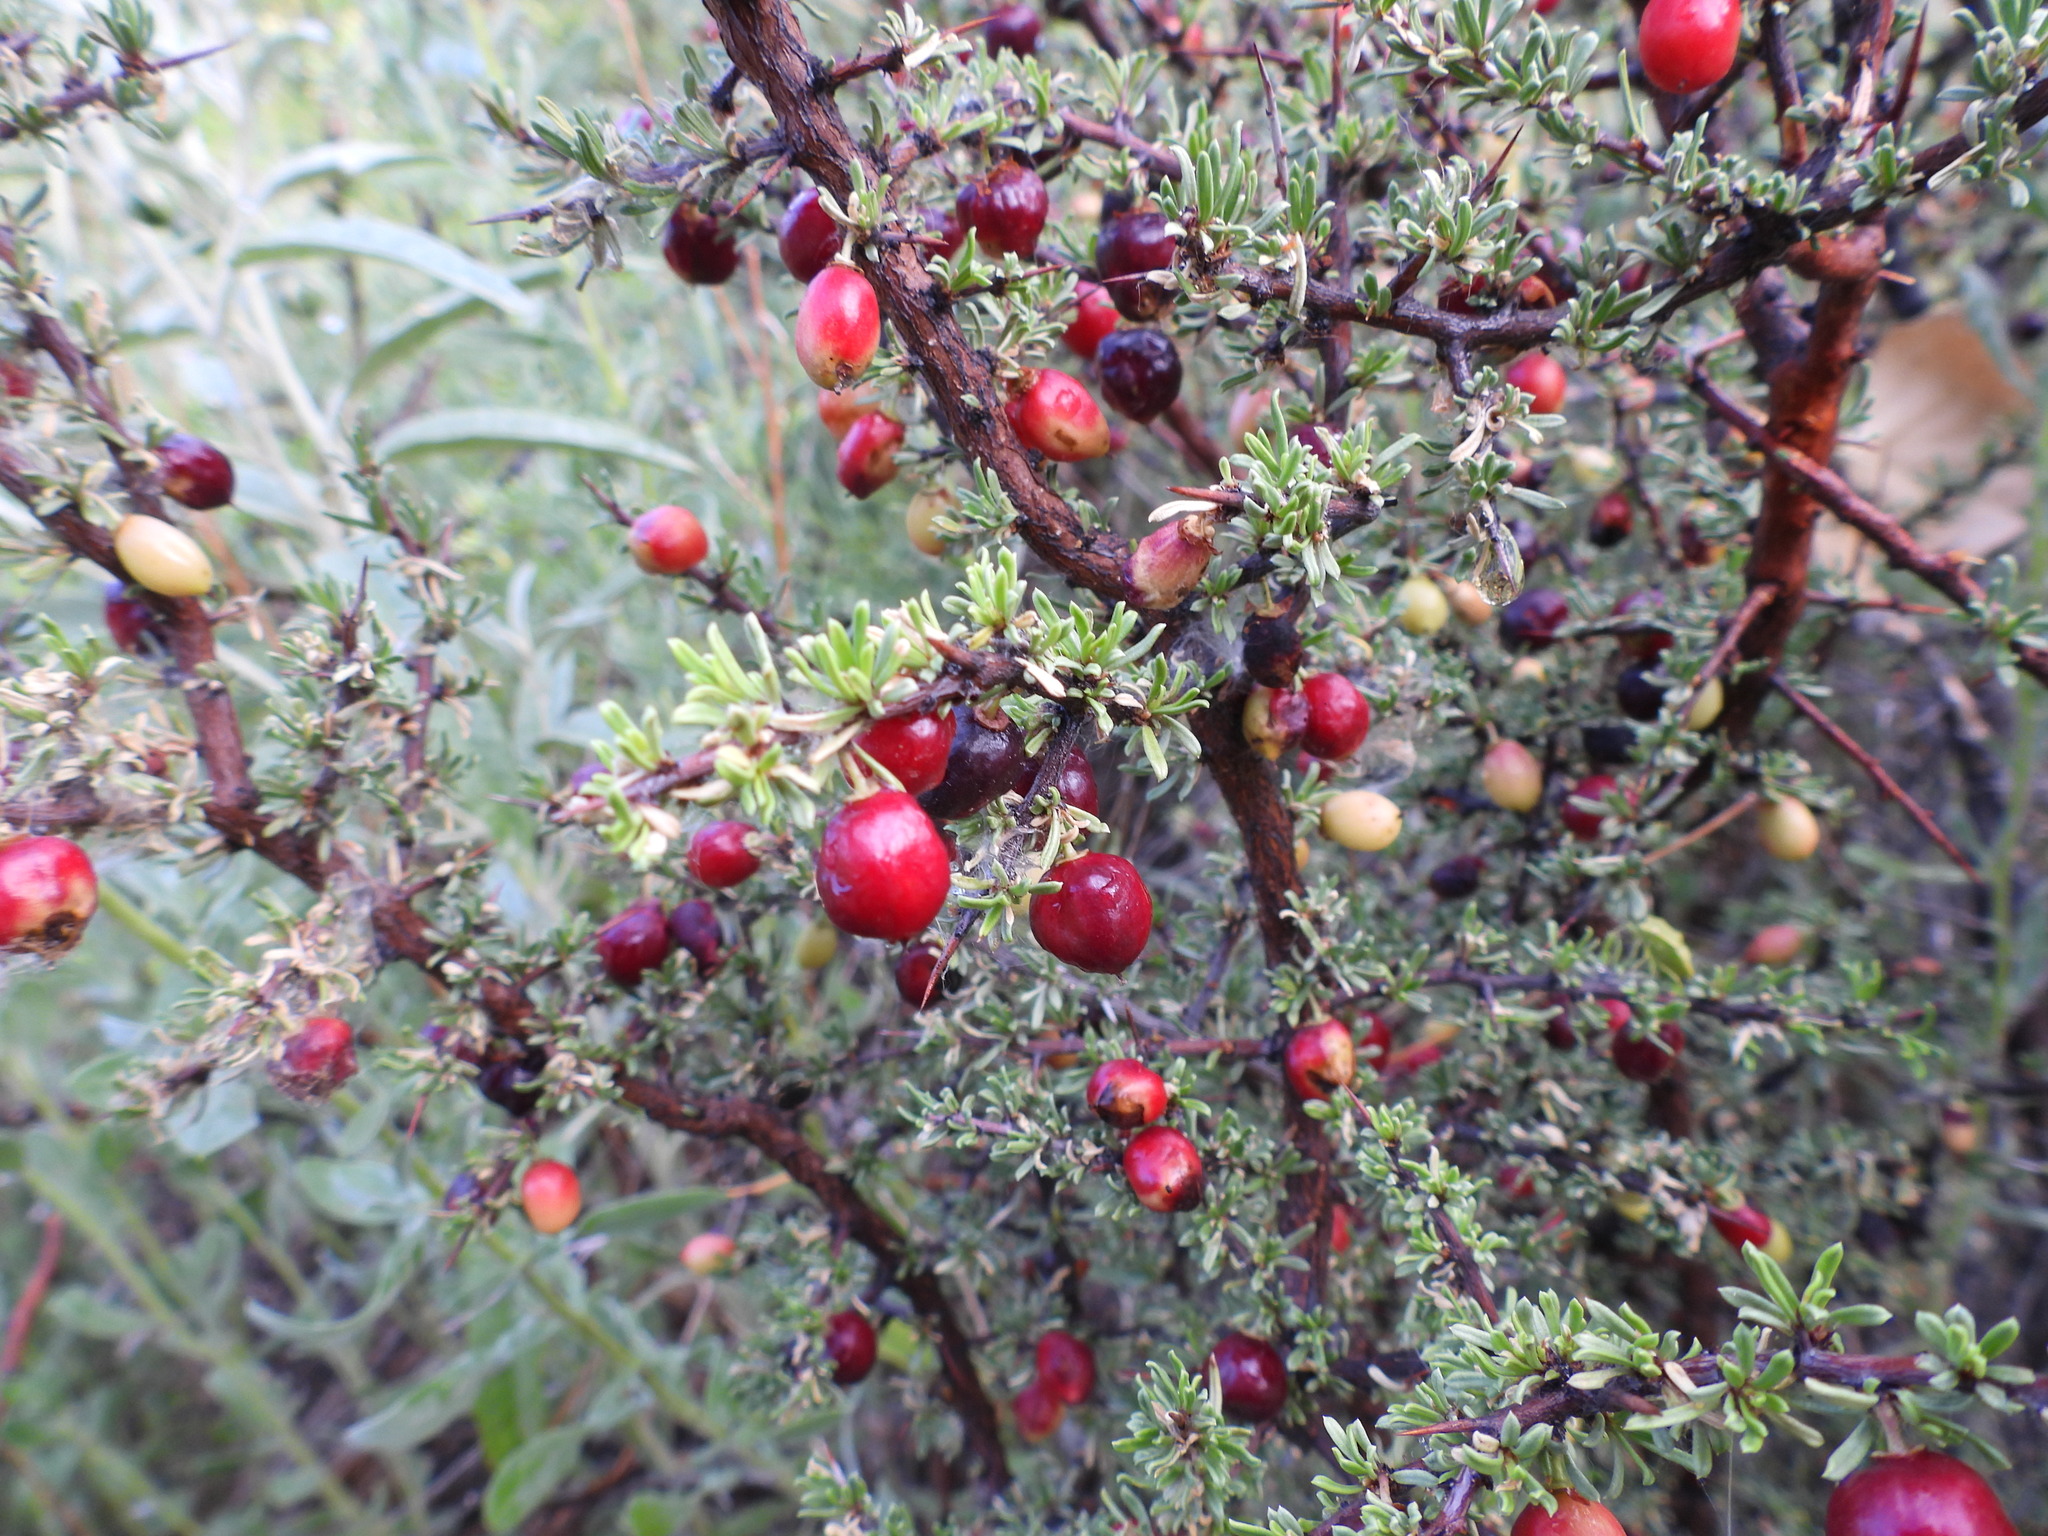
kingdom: Plantae
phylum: Tracheophyta
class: Magnoliopsida
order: Rosales
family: Rhamnaceae
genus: Condalia
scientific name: Condalia ericoides
